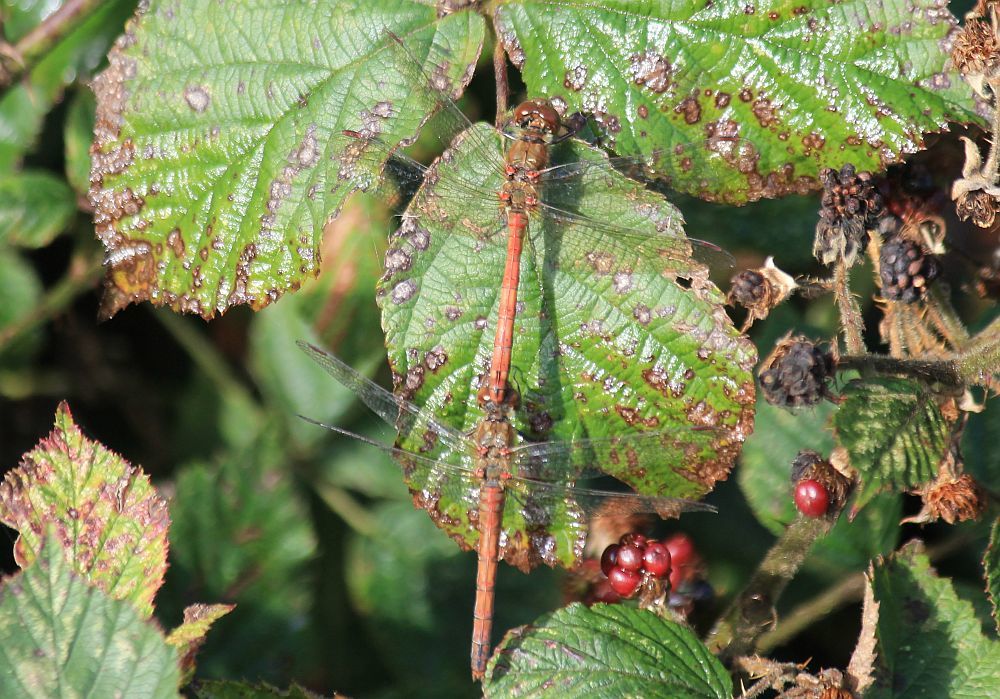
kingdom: Animalia
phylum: Arthropoda
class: Insecta
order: Odonata
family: Libellulidae
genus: Sympetrum
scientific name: Sympetrum striolatum
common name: Common darter
